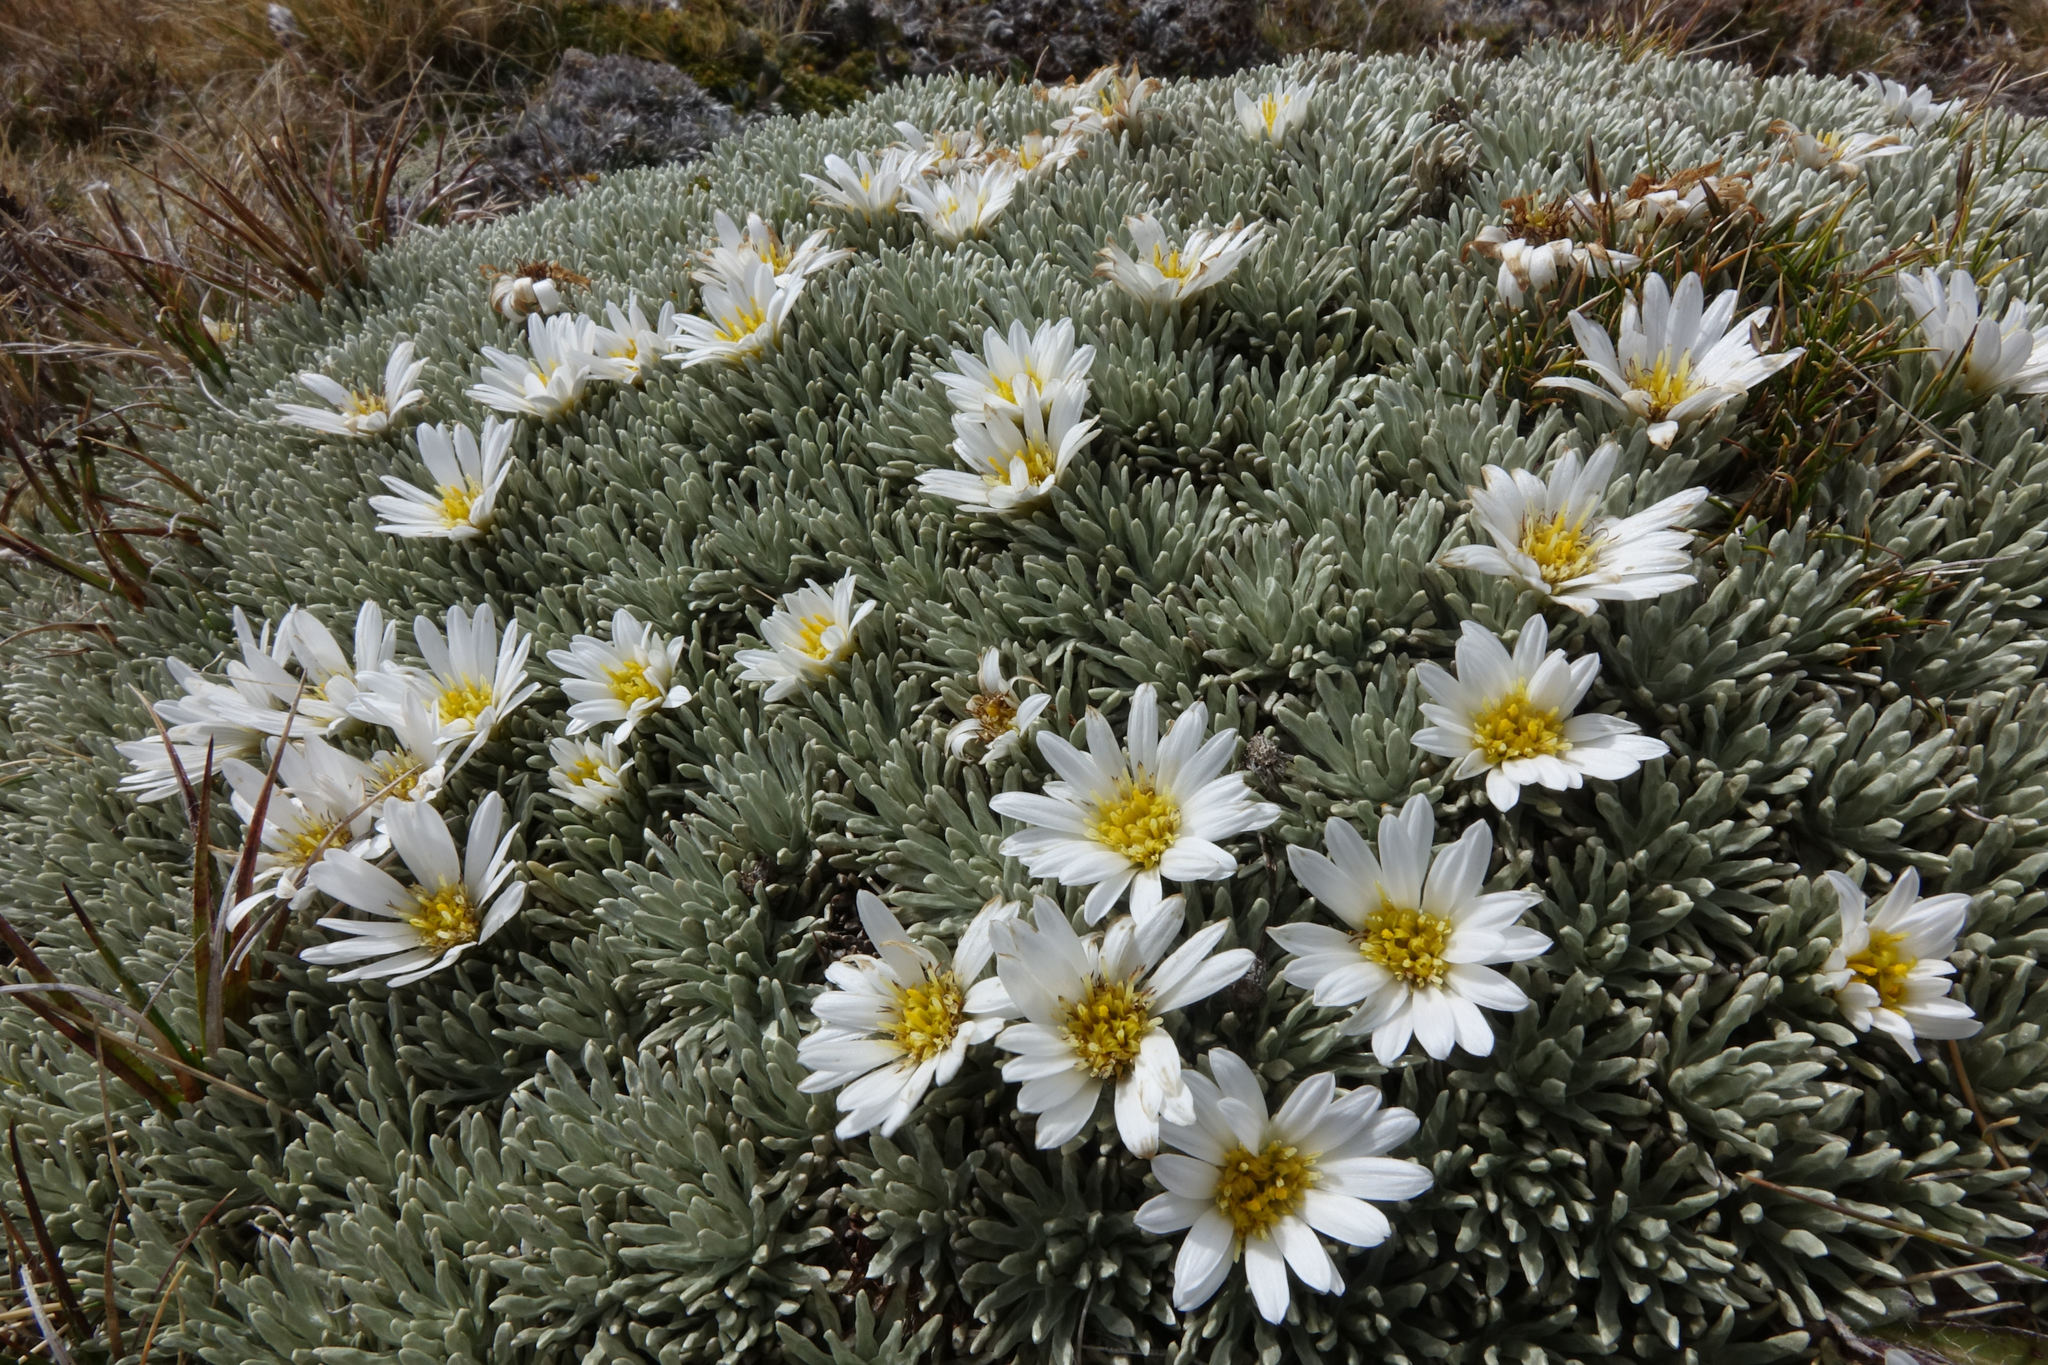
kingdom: Plantae
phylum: Tracheophyta
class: Magnoliopsida
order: Asterales
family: Asteraceae
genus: Celmisia
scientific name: Celmisia sessiliflora
